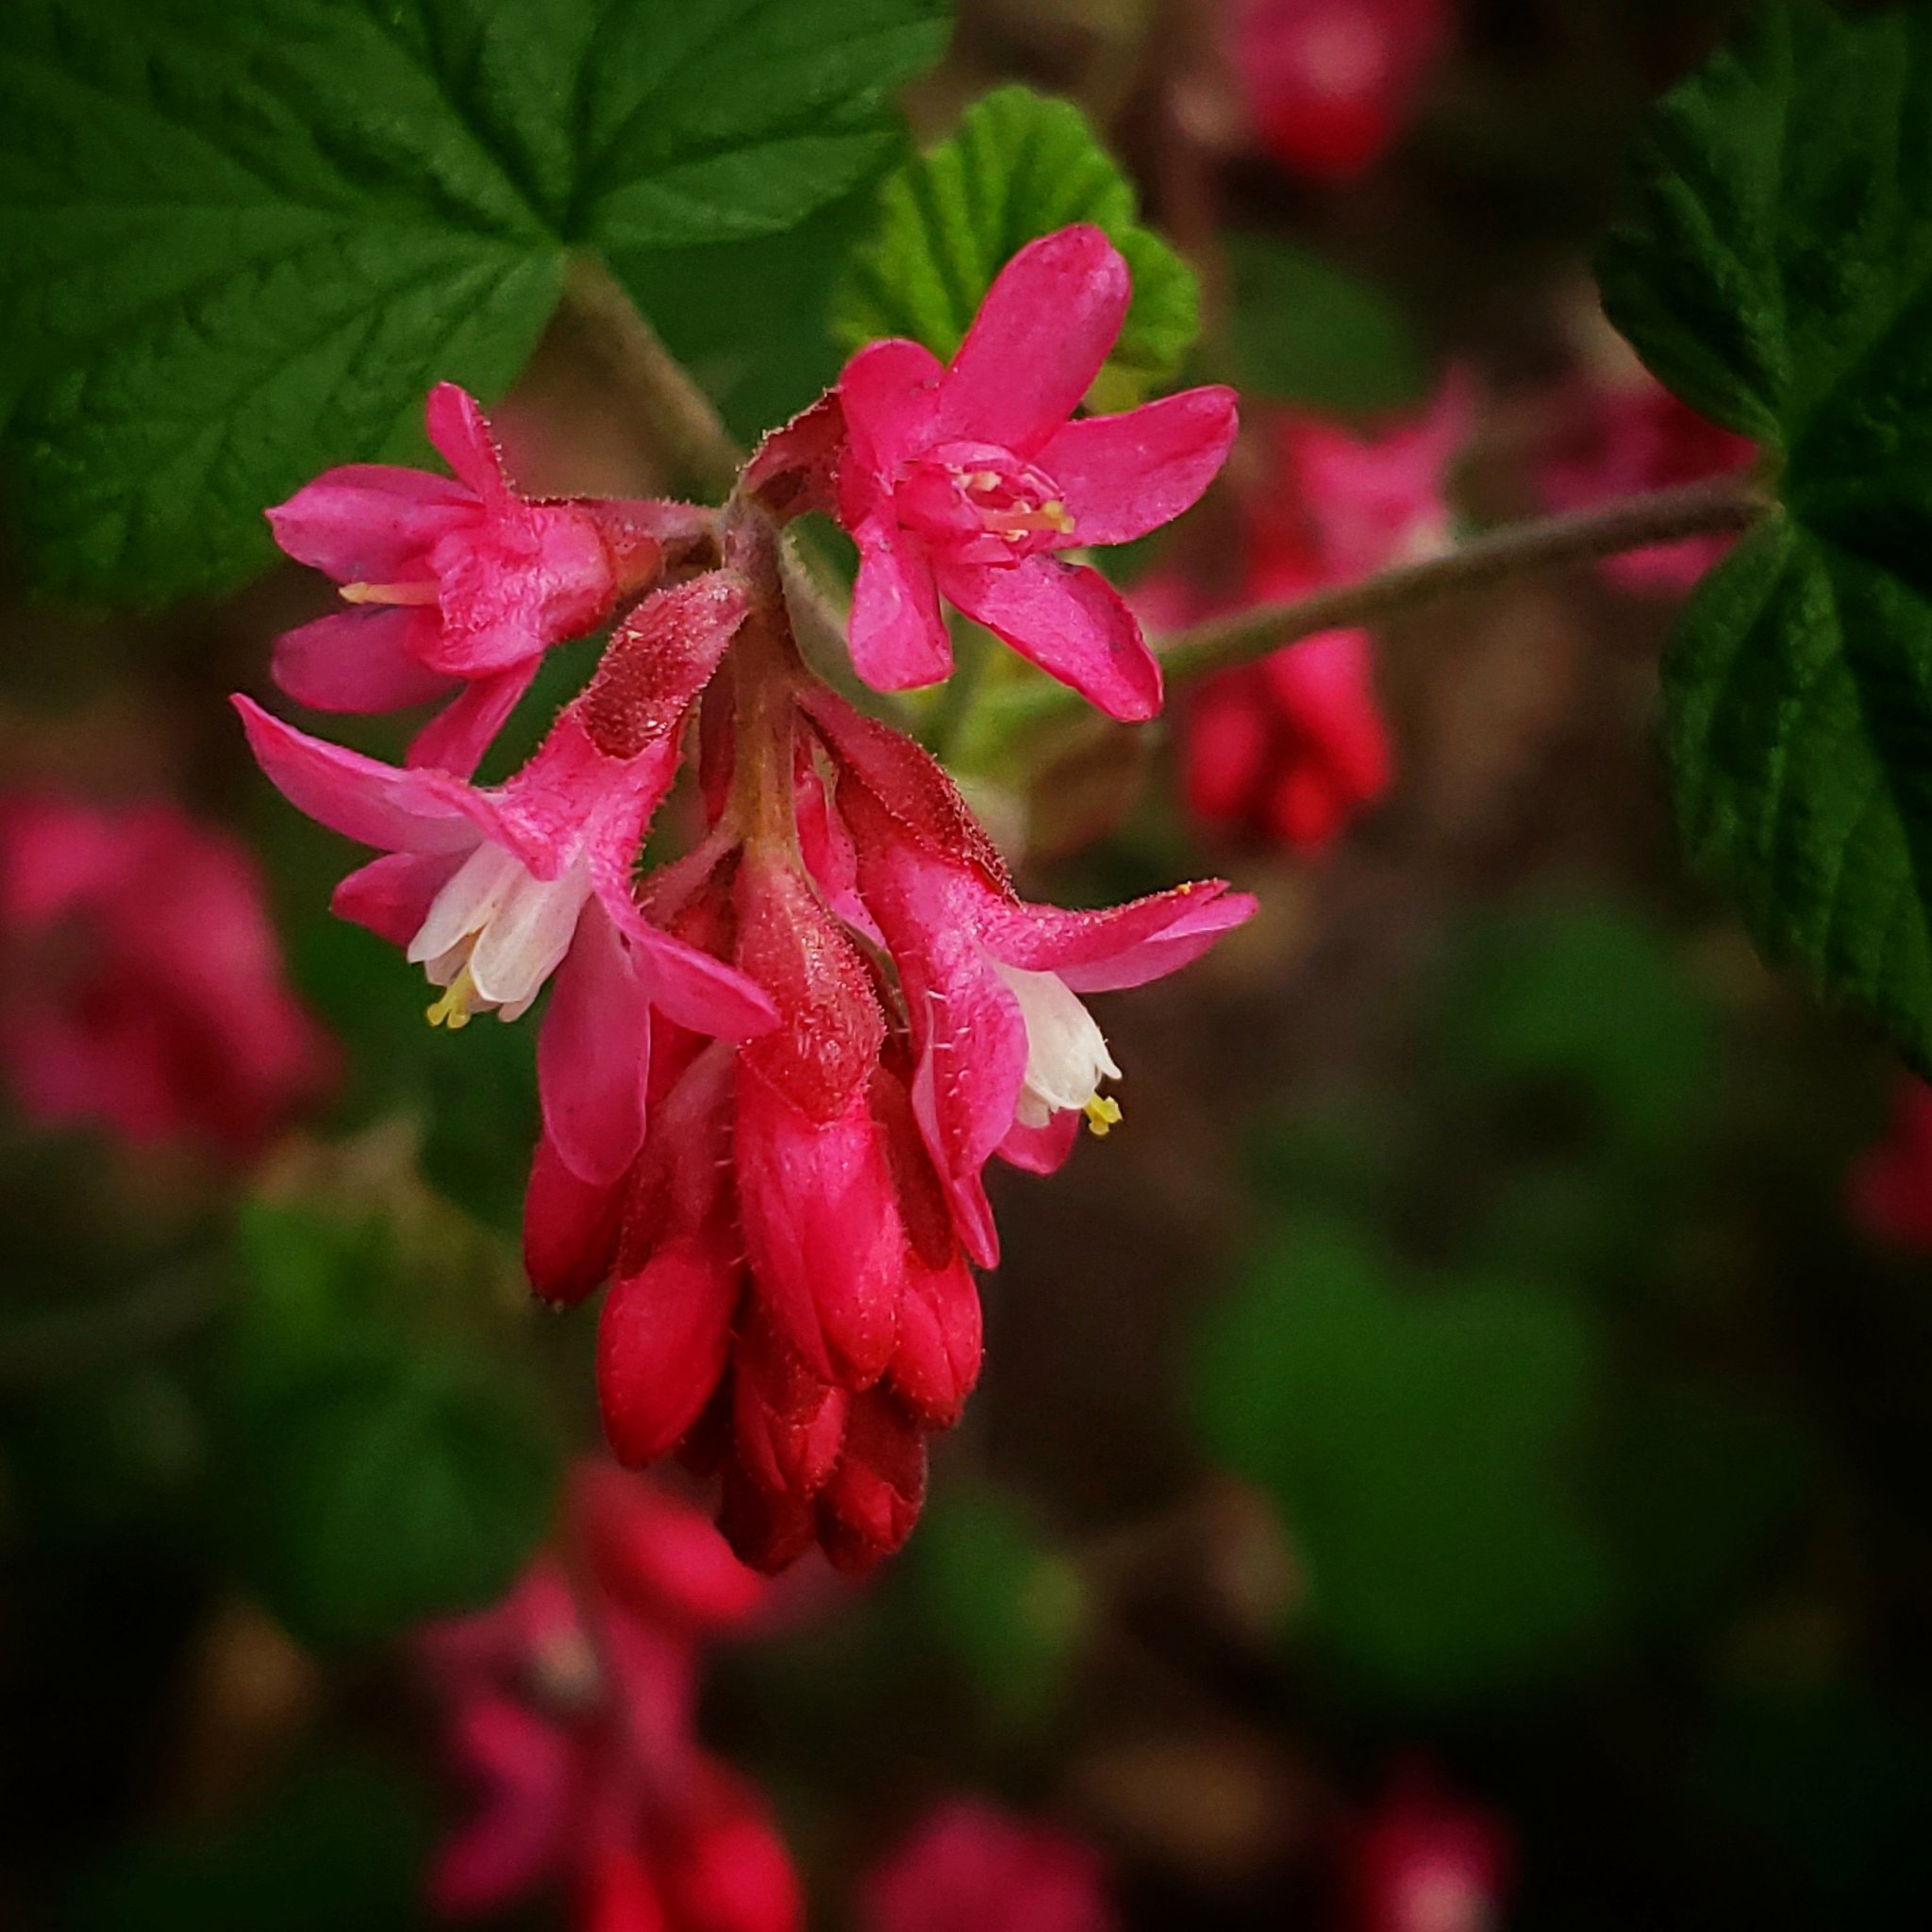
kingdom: Plantae
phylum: Tracheophyta
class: Magnoliopsida
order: Saxifragales
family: Grossulariaceae
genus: Ribes
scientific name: Ribes sanguineum
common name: Flowering currant
